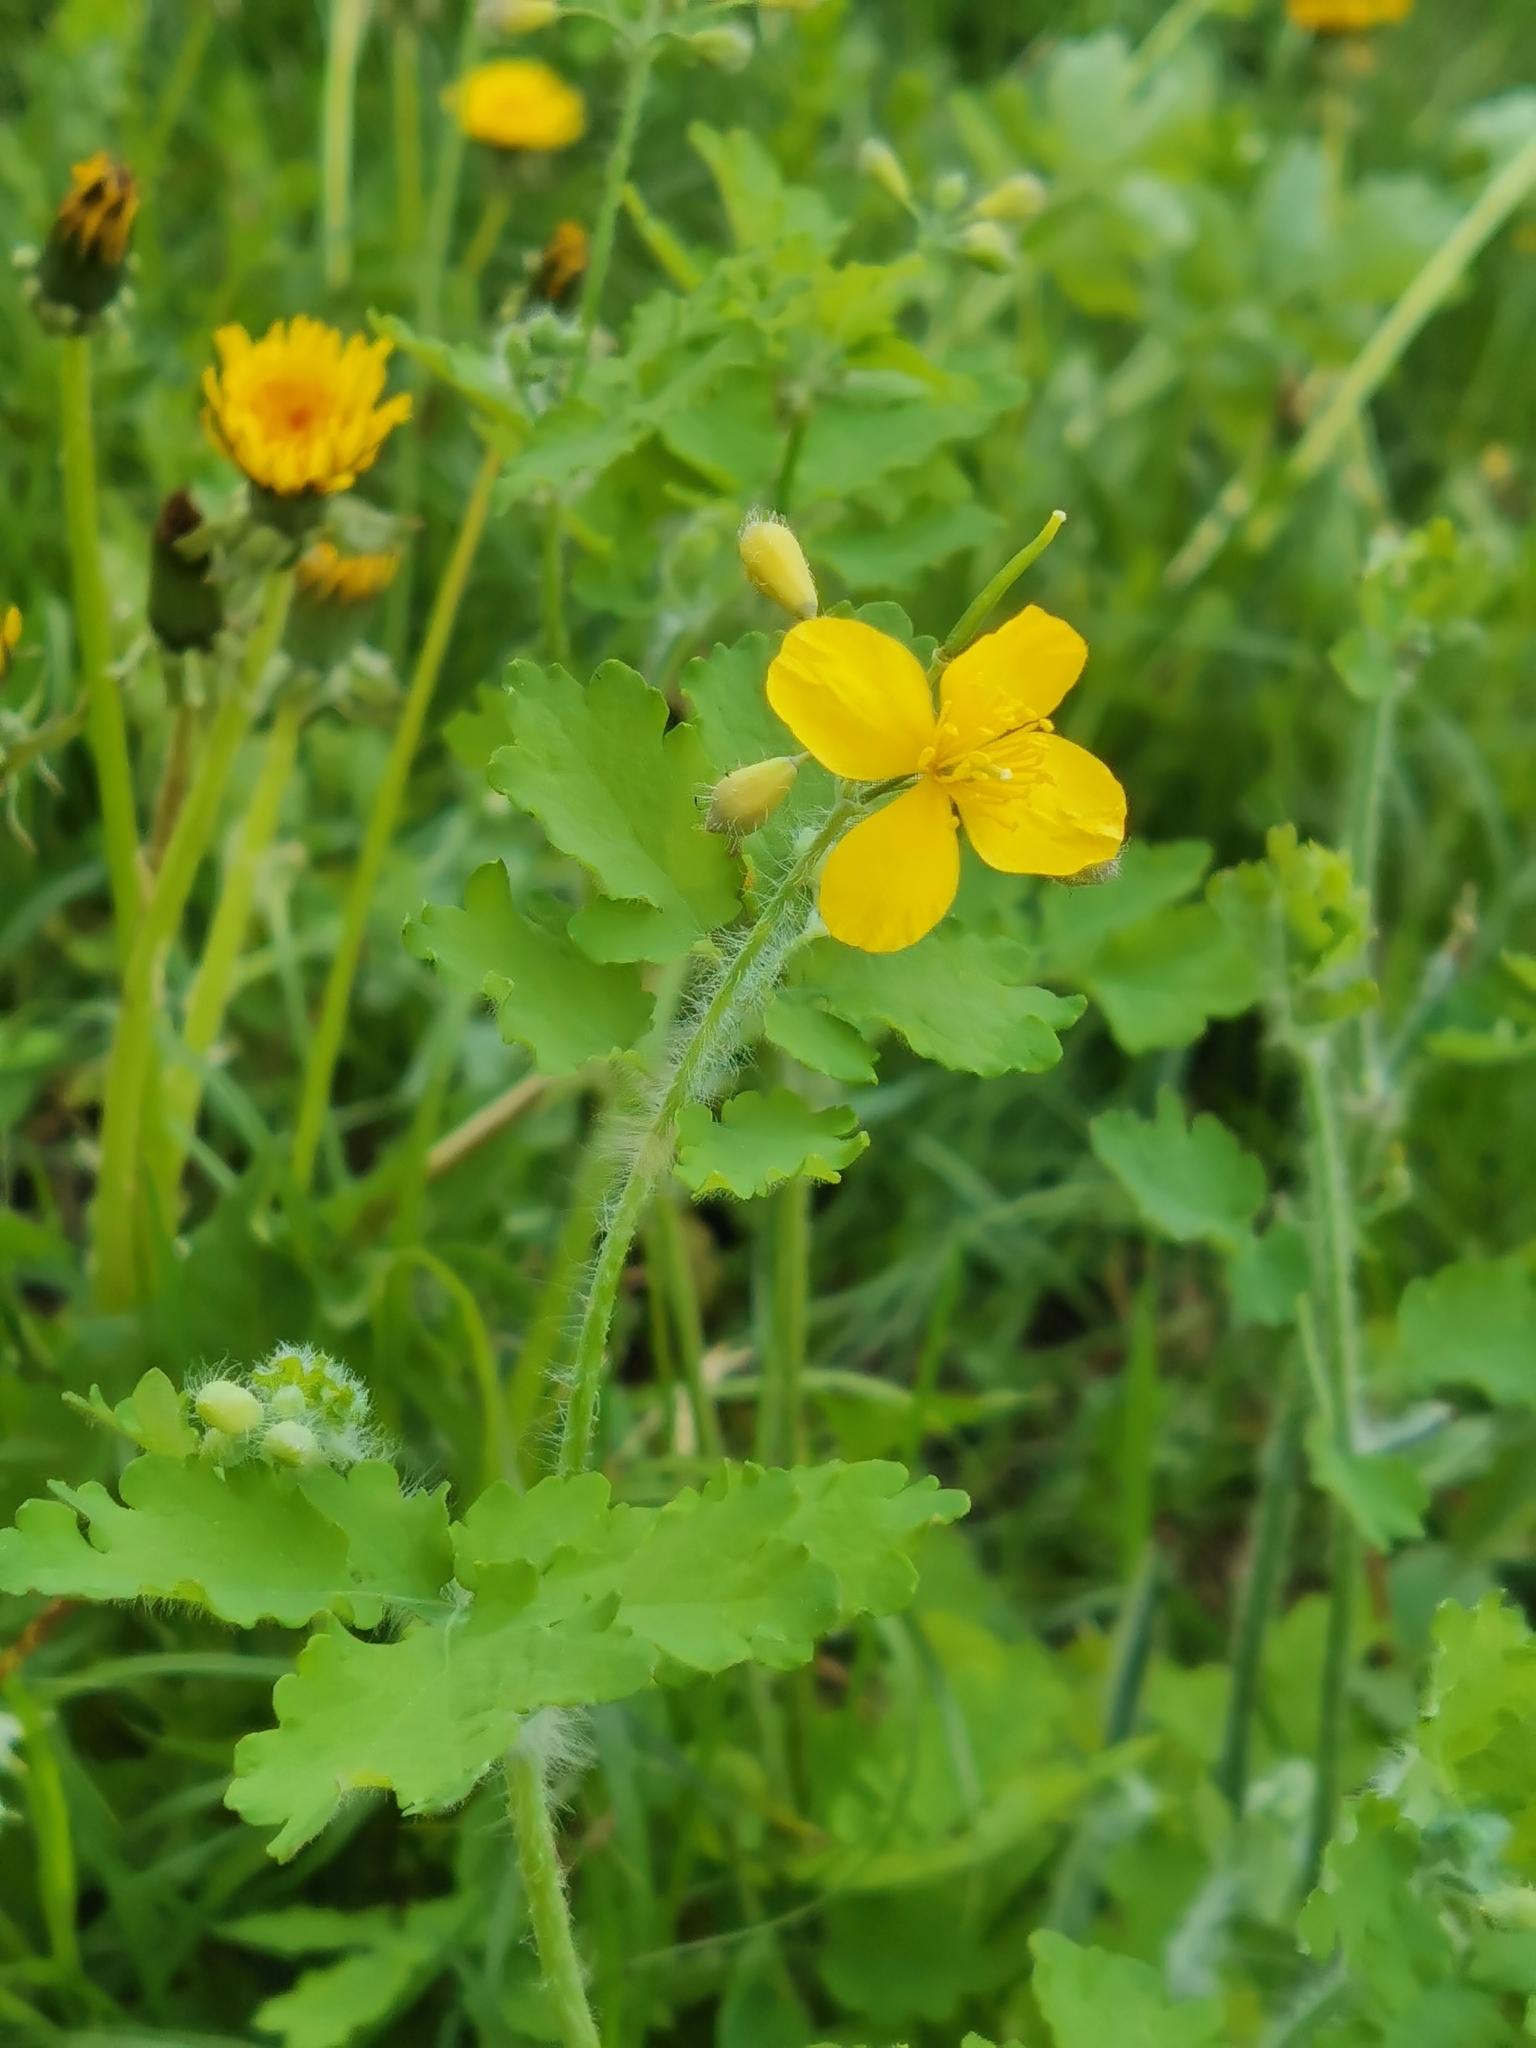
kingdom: Plantae
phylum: Tracheophyta
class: Magnoliopsida
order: Ranunculales
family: Papaveraceae
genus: Chelidonium
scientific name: Chelidonium majus
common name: Greater celandine
